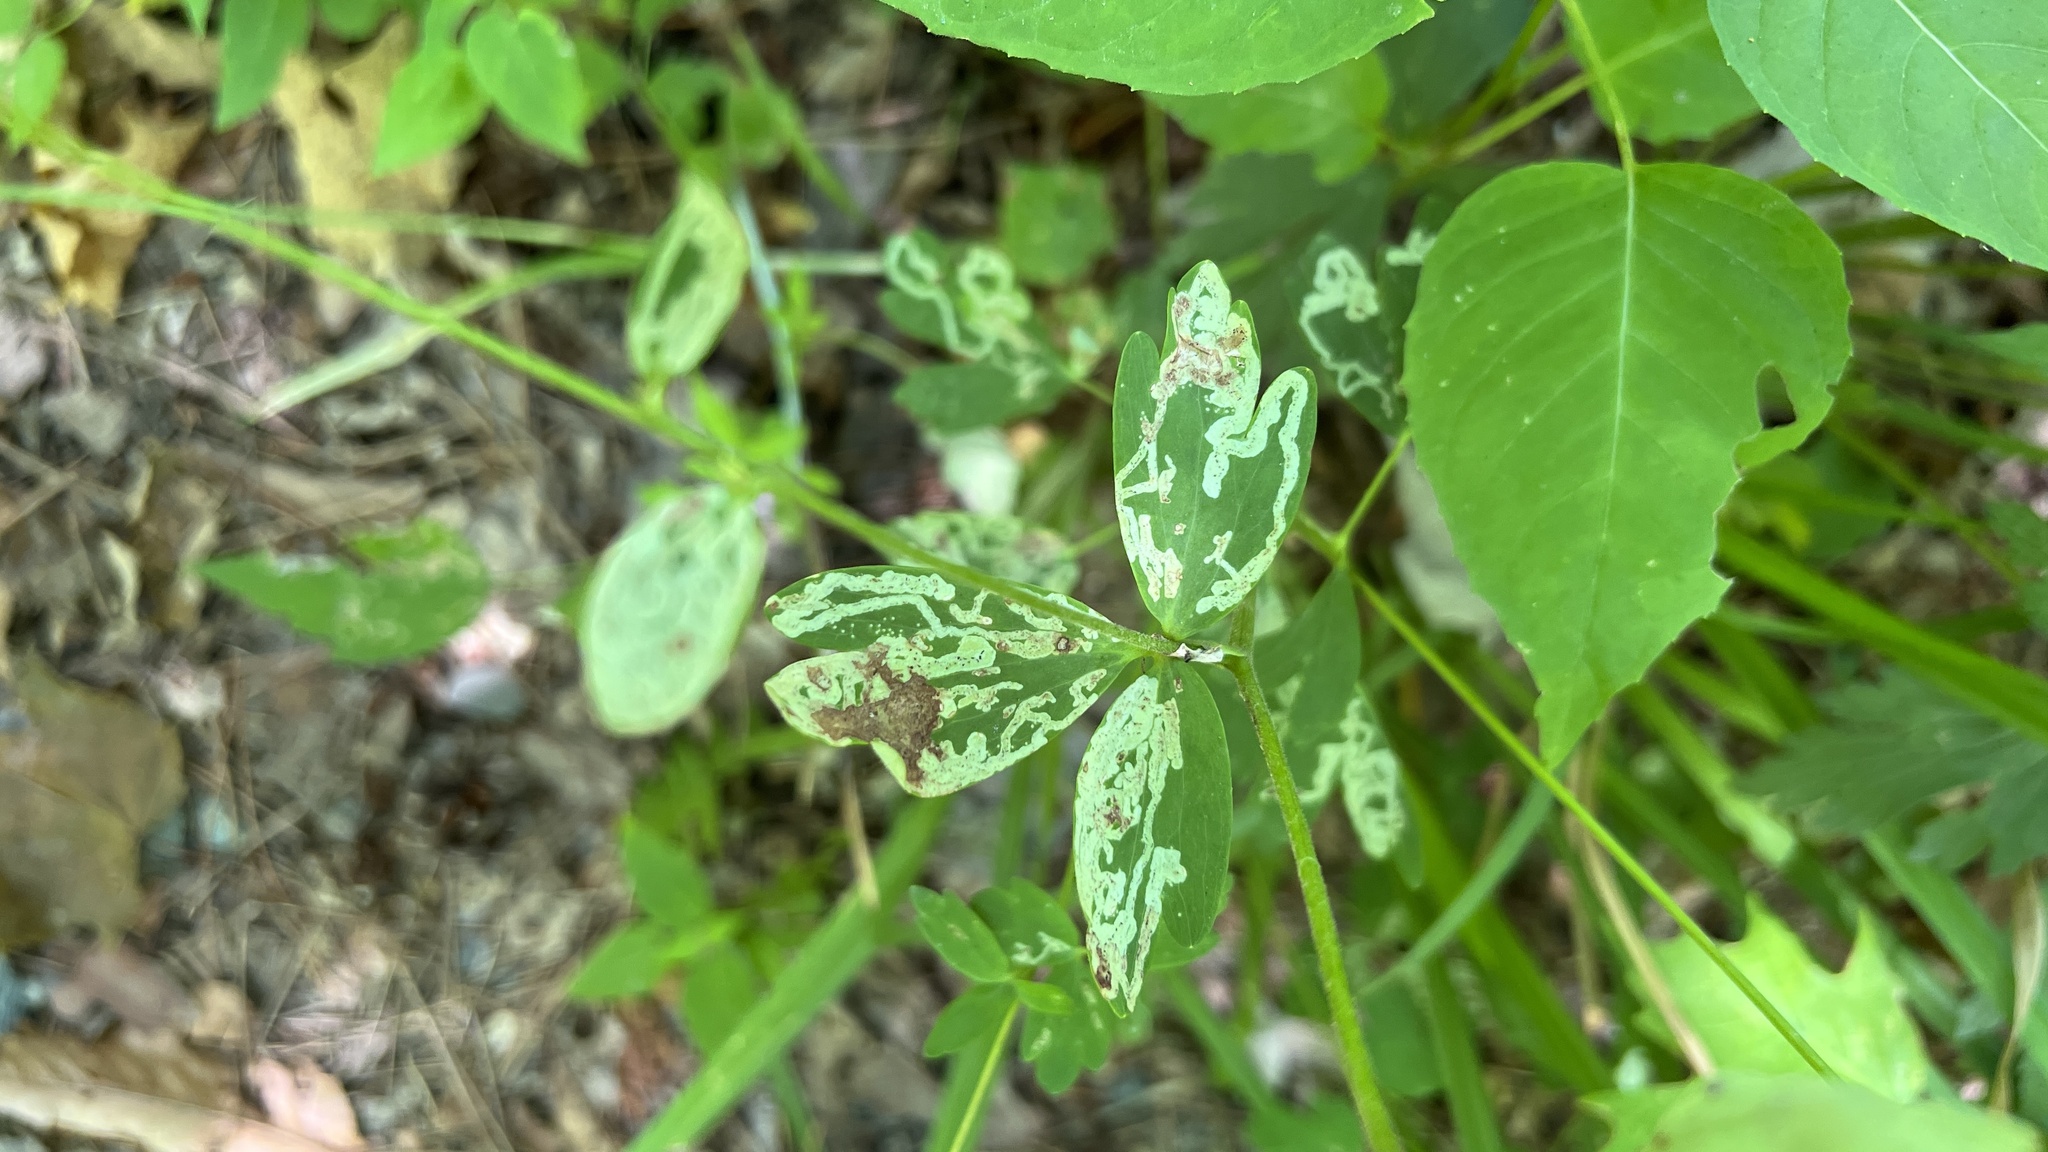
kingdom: Animalia
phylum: Arthropoda
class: Insecta
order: Diptera
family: Agromyzidae
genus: Phytomyza
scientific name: Phytomyza aquilegivora
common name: Columbine leafminer
